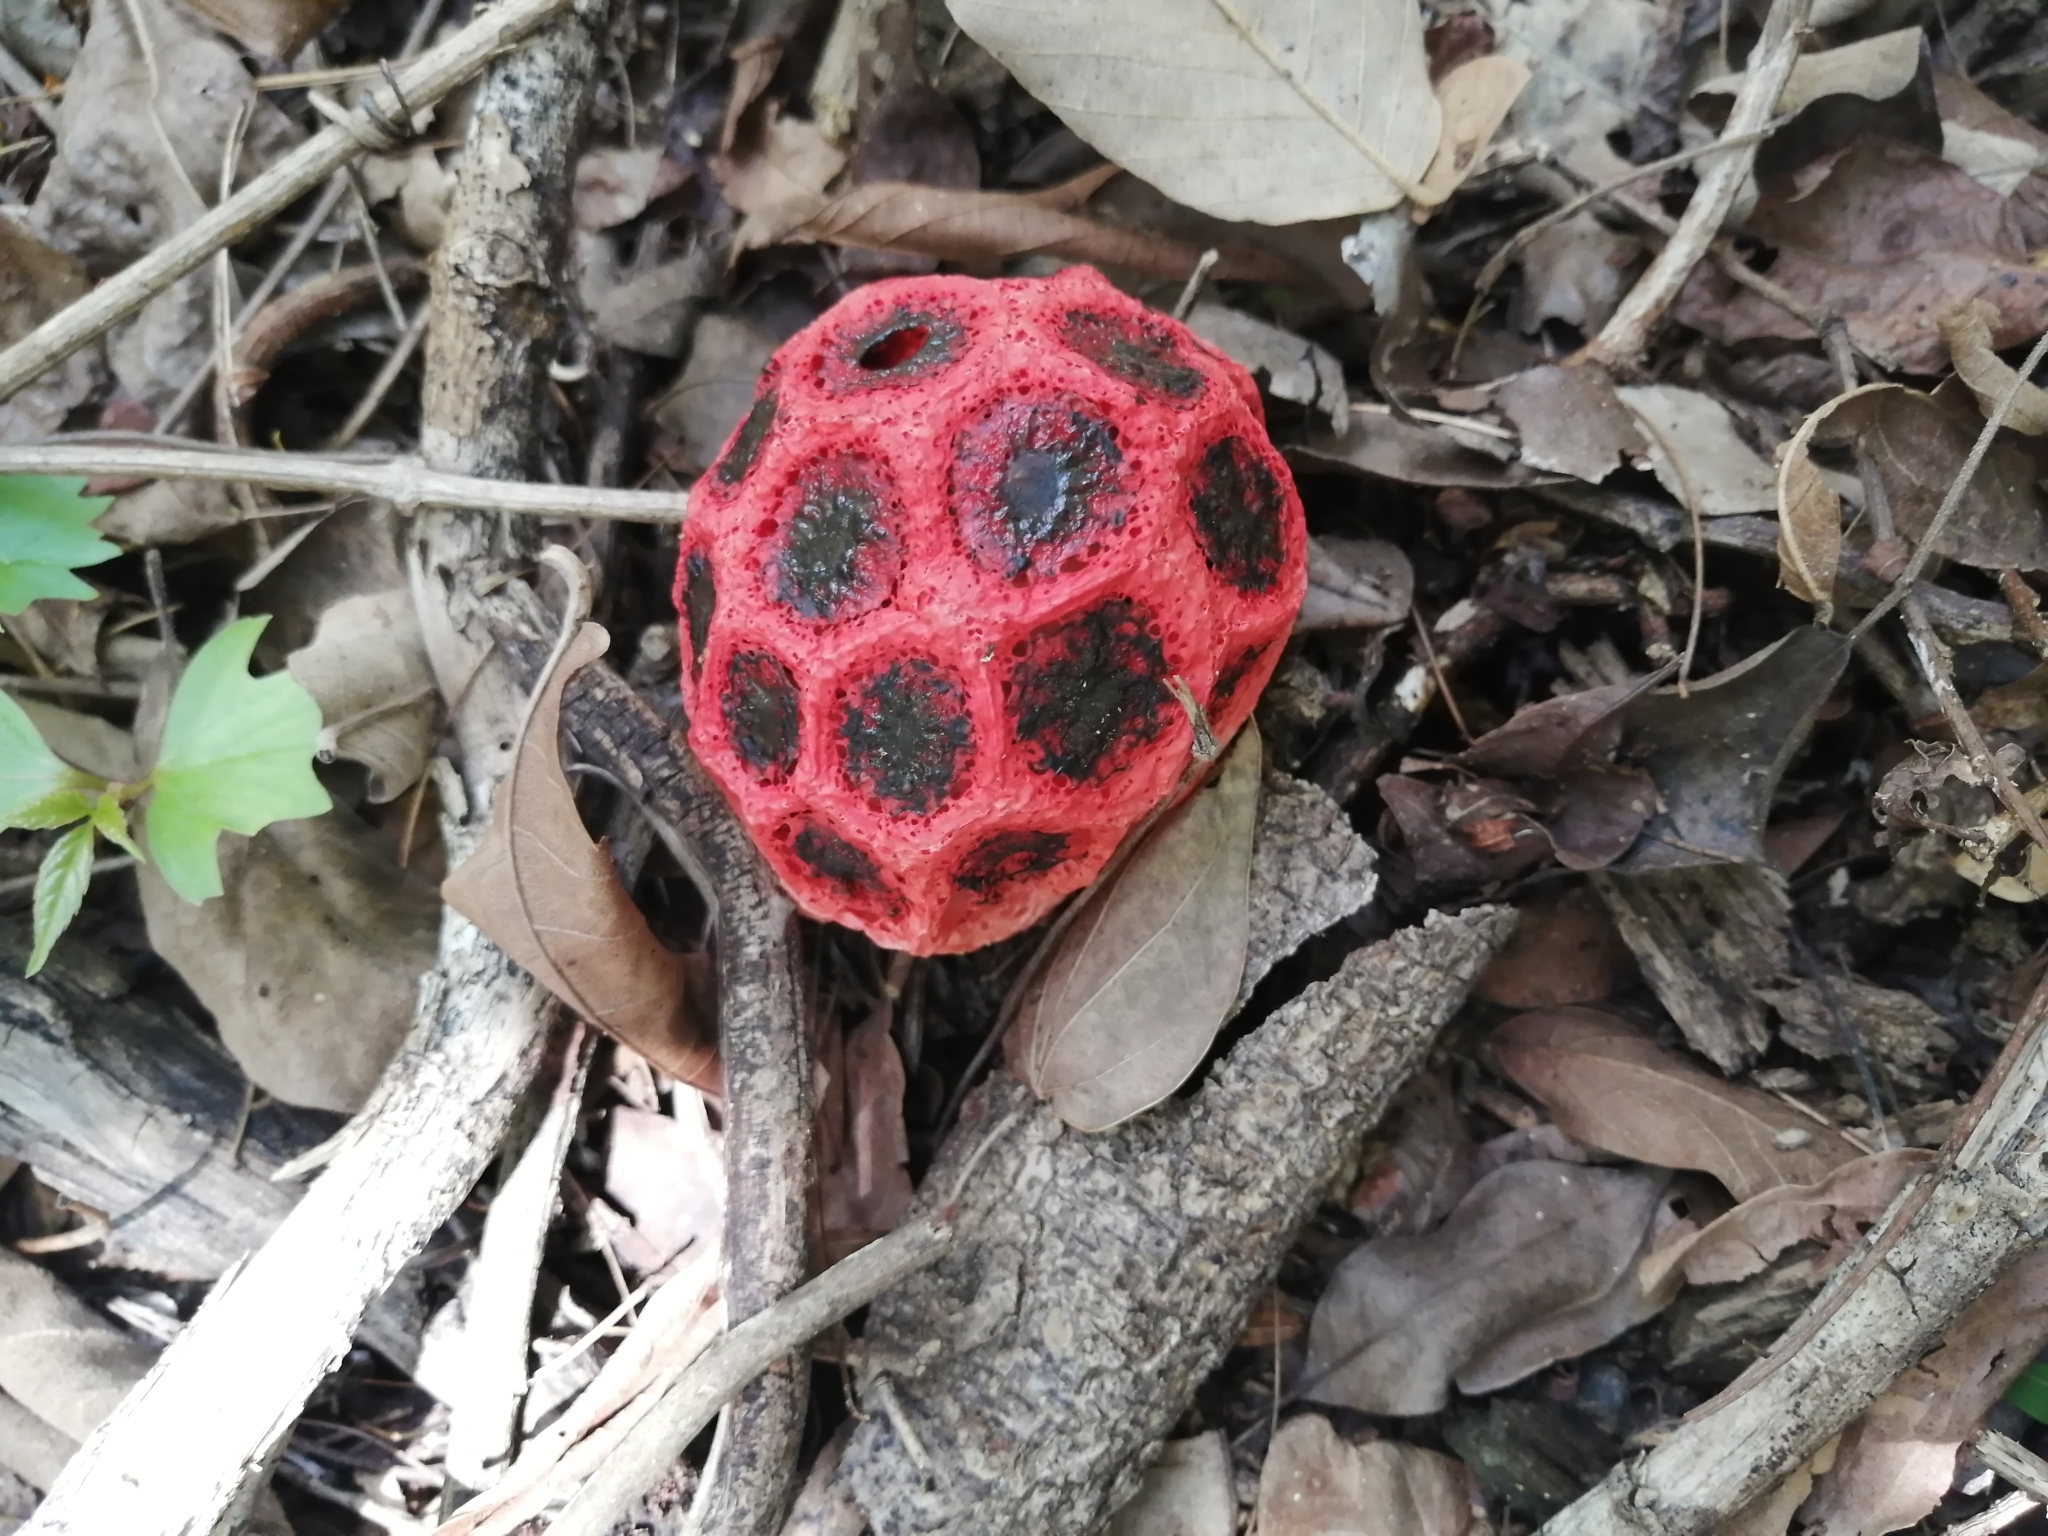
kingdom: Fungi
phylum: Basidiomycota
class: Agaricomycetes
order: Phallales
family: Phallaceae
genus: Clathrus
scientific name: Clathrus crispatus
